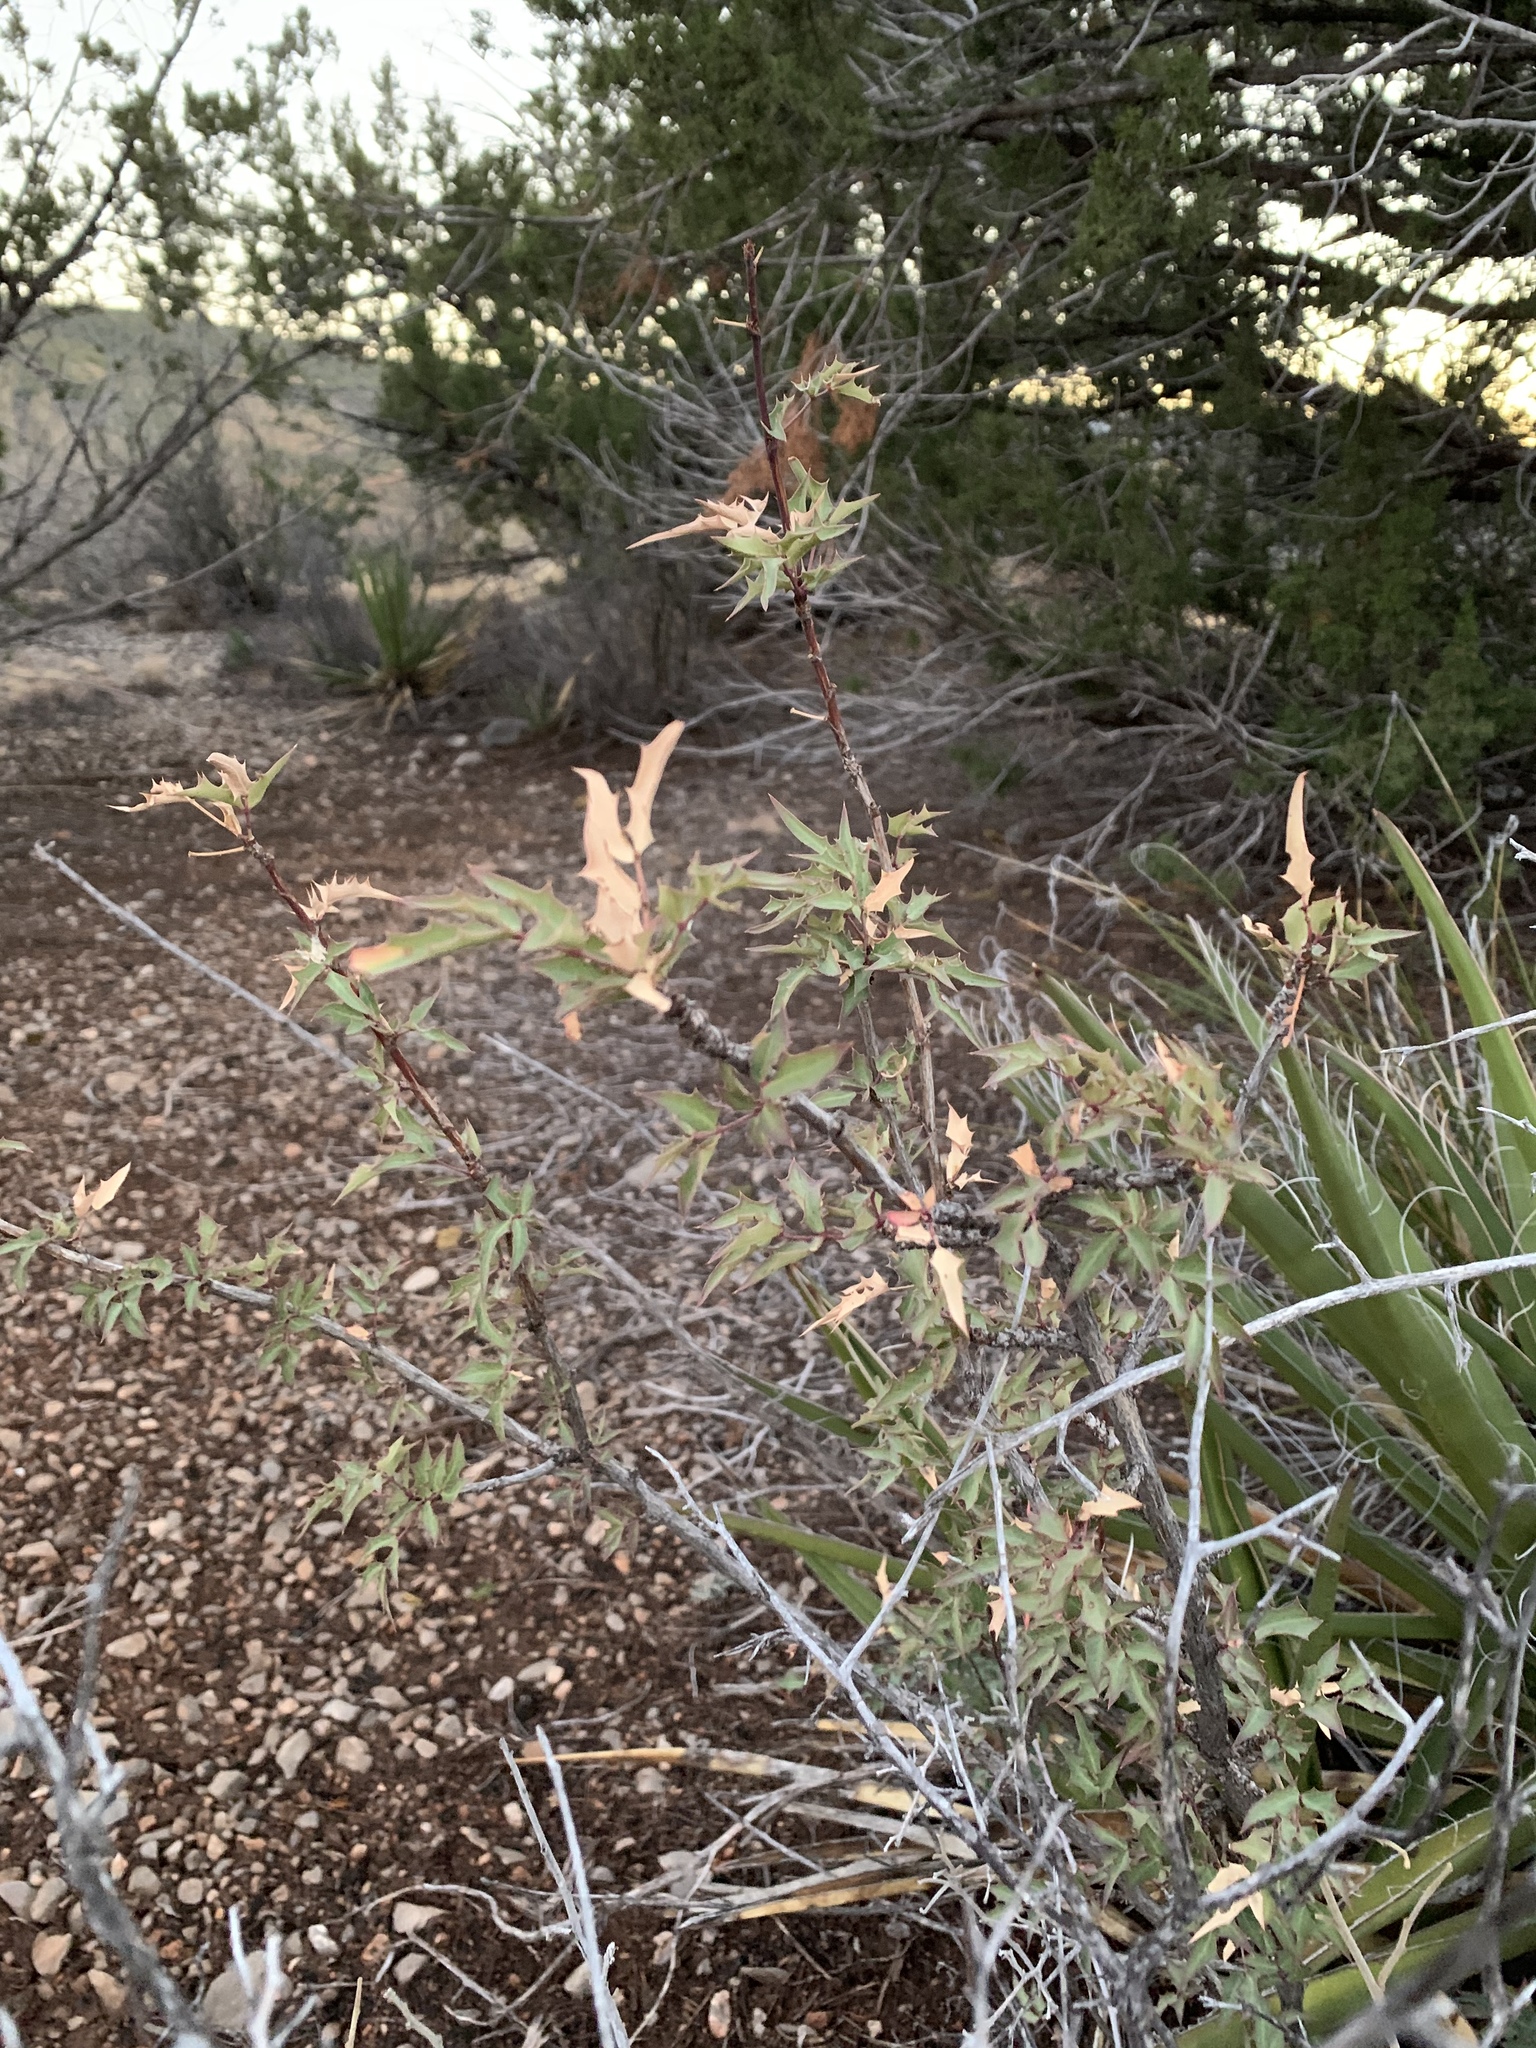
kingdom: Plantae
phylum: Tracheophyta
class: Magnoliopsida
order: Ranunculales
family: Berberidaceae
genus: Alloberberis
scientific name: Alloberberis haematocarpa
